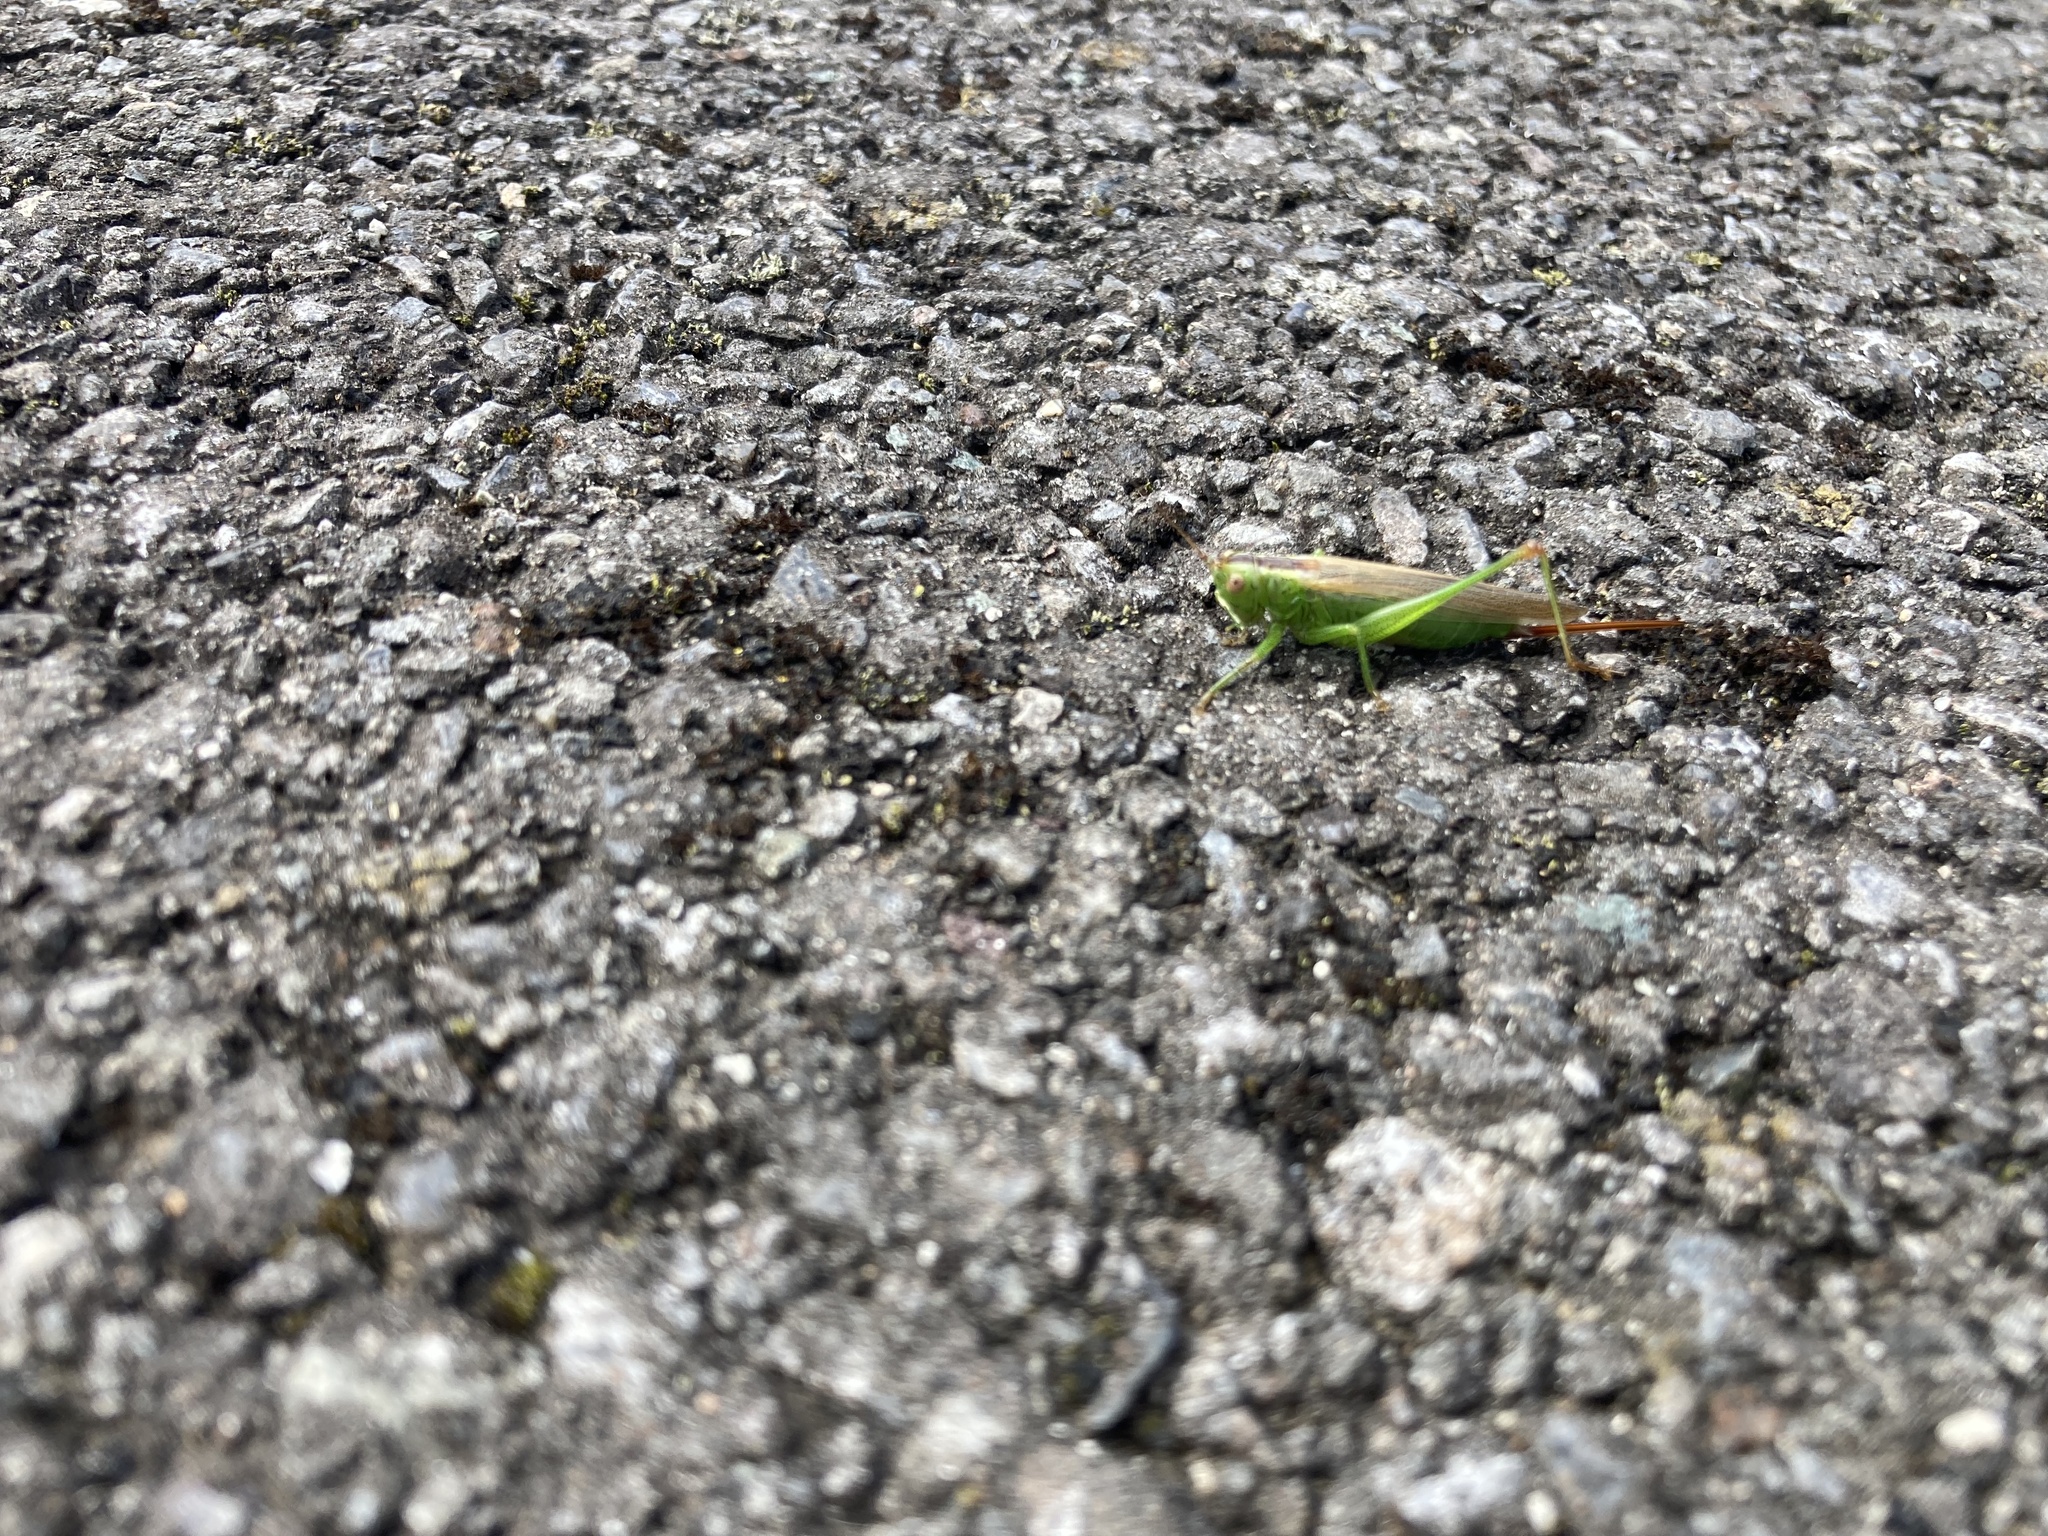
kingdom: Animalia
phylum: Arthropoda
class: Insecta
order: Orthoptera
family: Tettigoniidae
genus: Conocephalus
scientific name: Conocephalus fuscus
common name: Long-winged conehead
